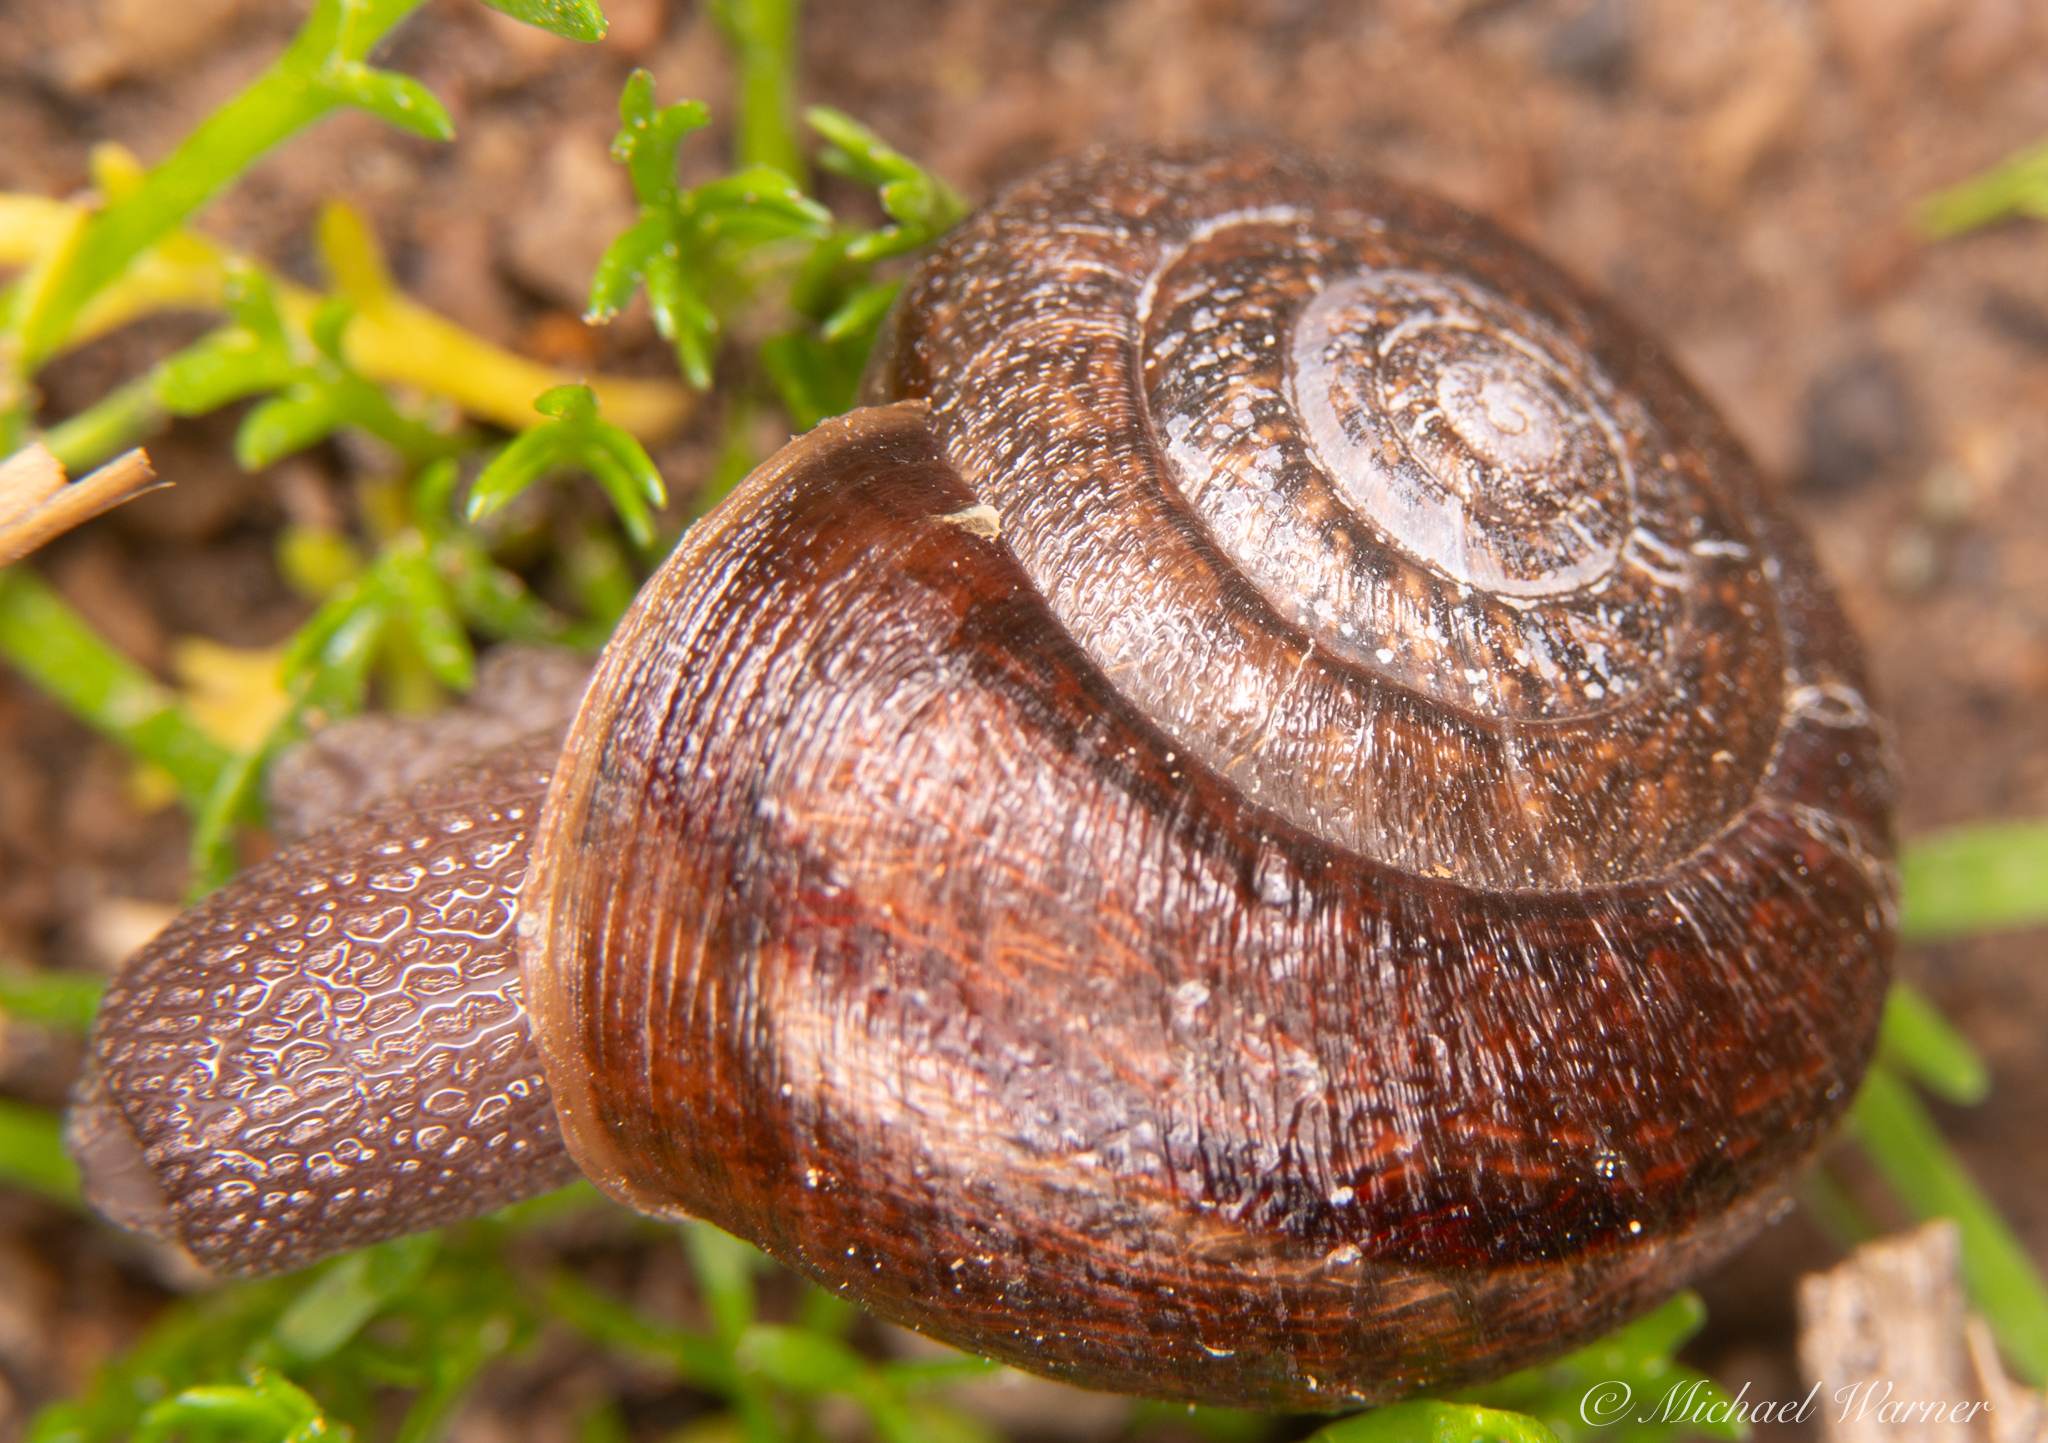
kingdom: Animalia
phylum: Mollusca
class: Gastropoda
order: Stylommatophora
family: Xanthonychidae
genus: Helminthoglypta
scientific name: Helminthoglypta diabloensis
